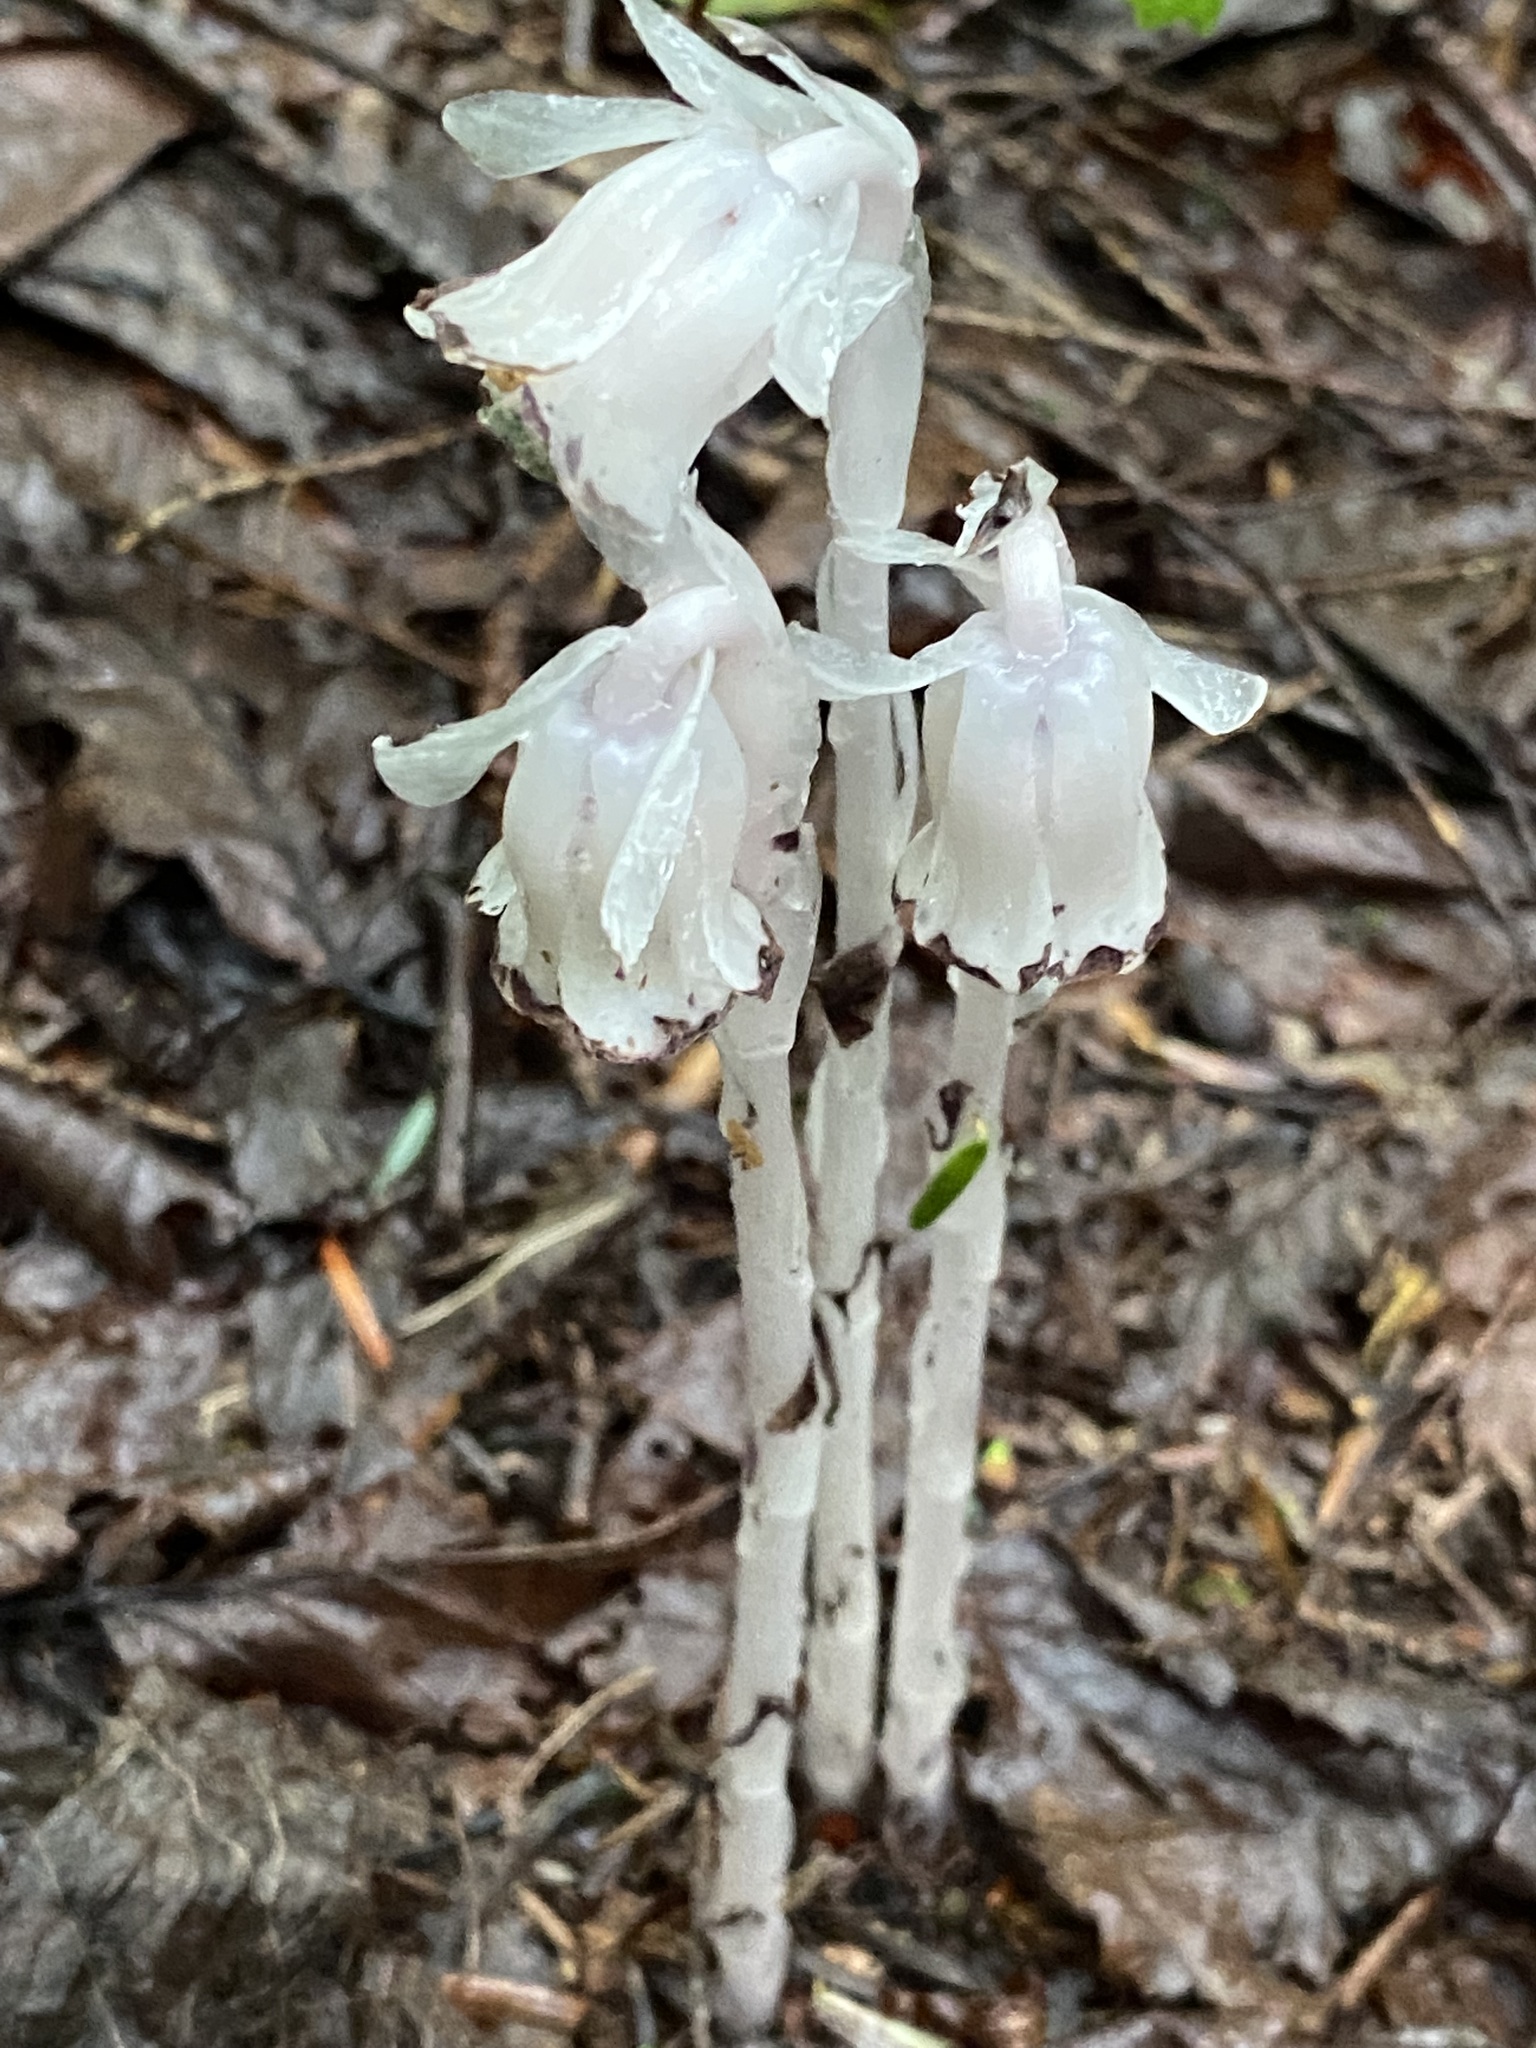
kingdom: Plantae
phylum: Tracheophyta
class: Magnoliopsida
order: Ericales
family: Ericaceae
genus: Monotropa
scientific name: Monotropa uniflora
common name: Convulsion root
